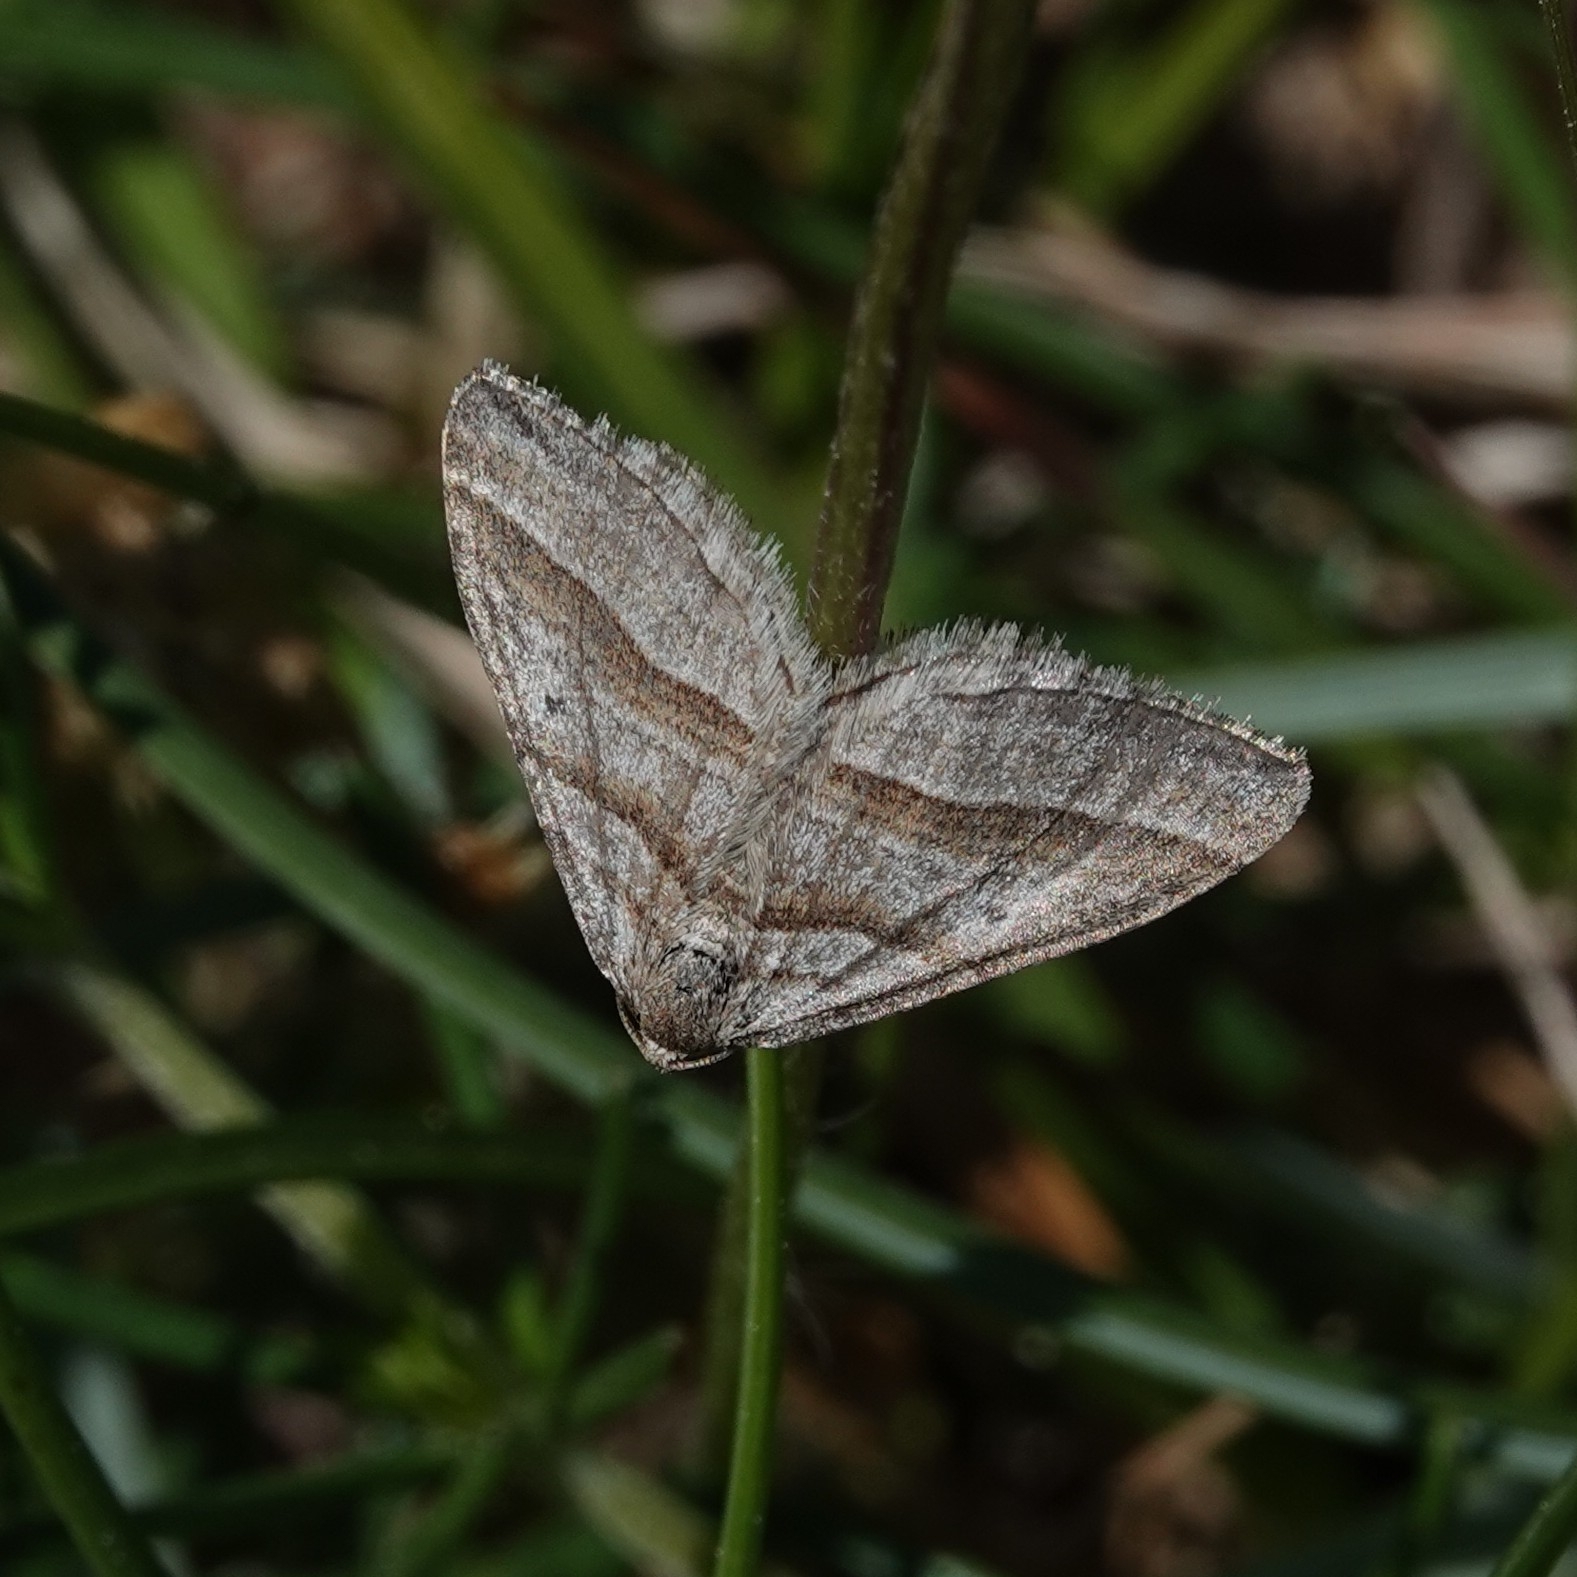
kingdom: Animalia
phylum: Arthropoda
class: Insecta
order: Lepidoptera
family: Geometridae
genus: Phibalapteryx
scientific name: Phibalapteryx virgata
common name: Oblique striped
